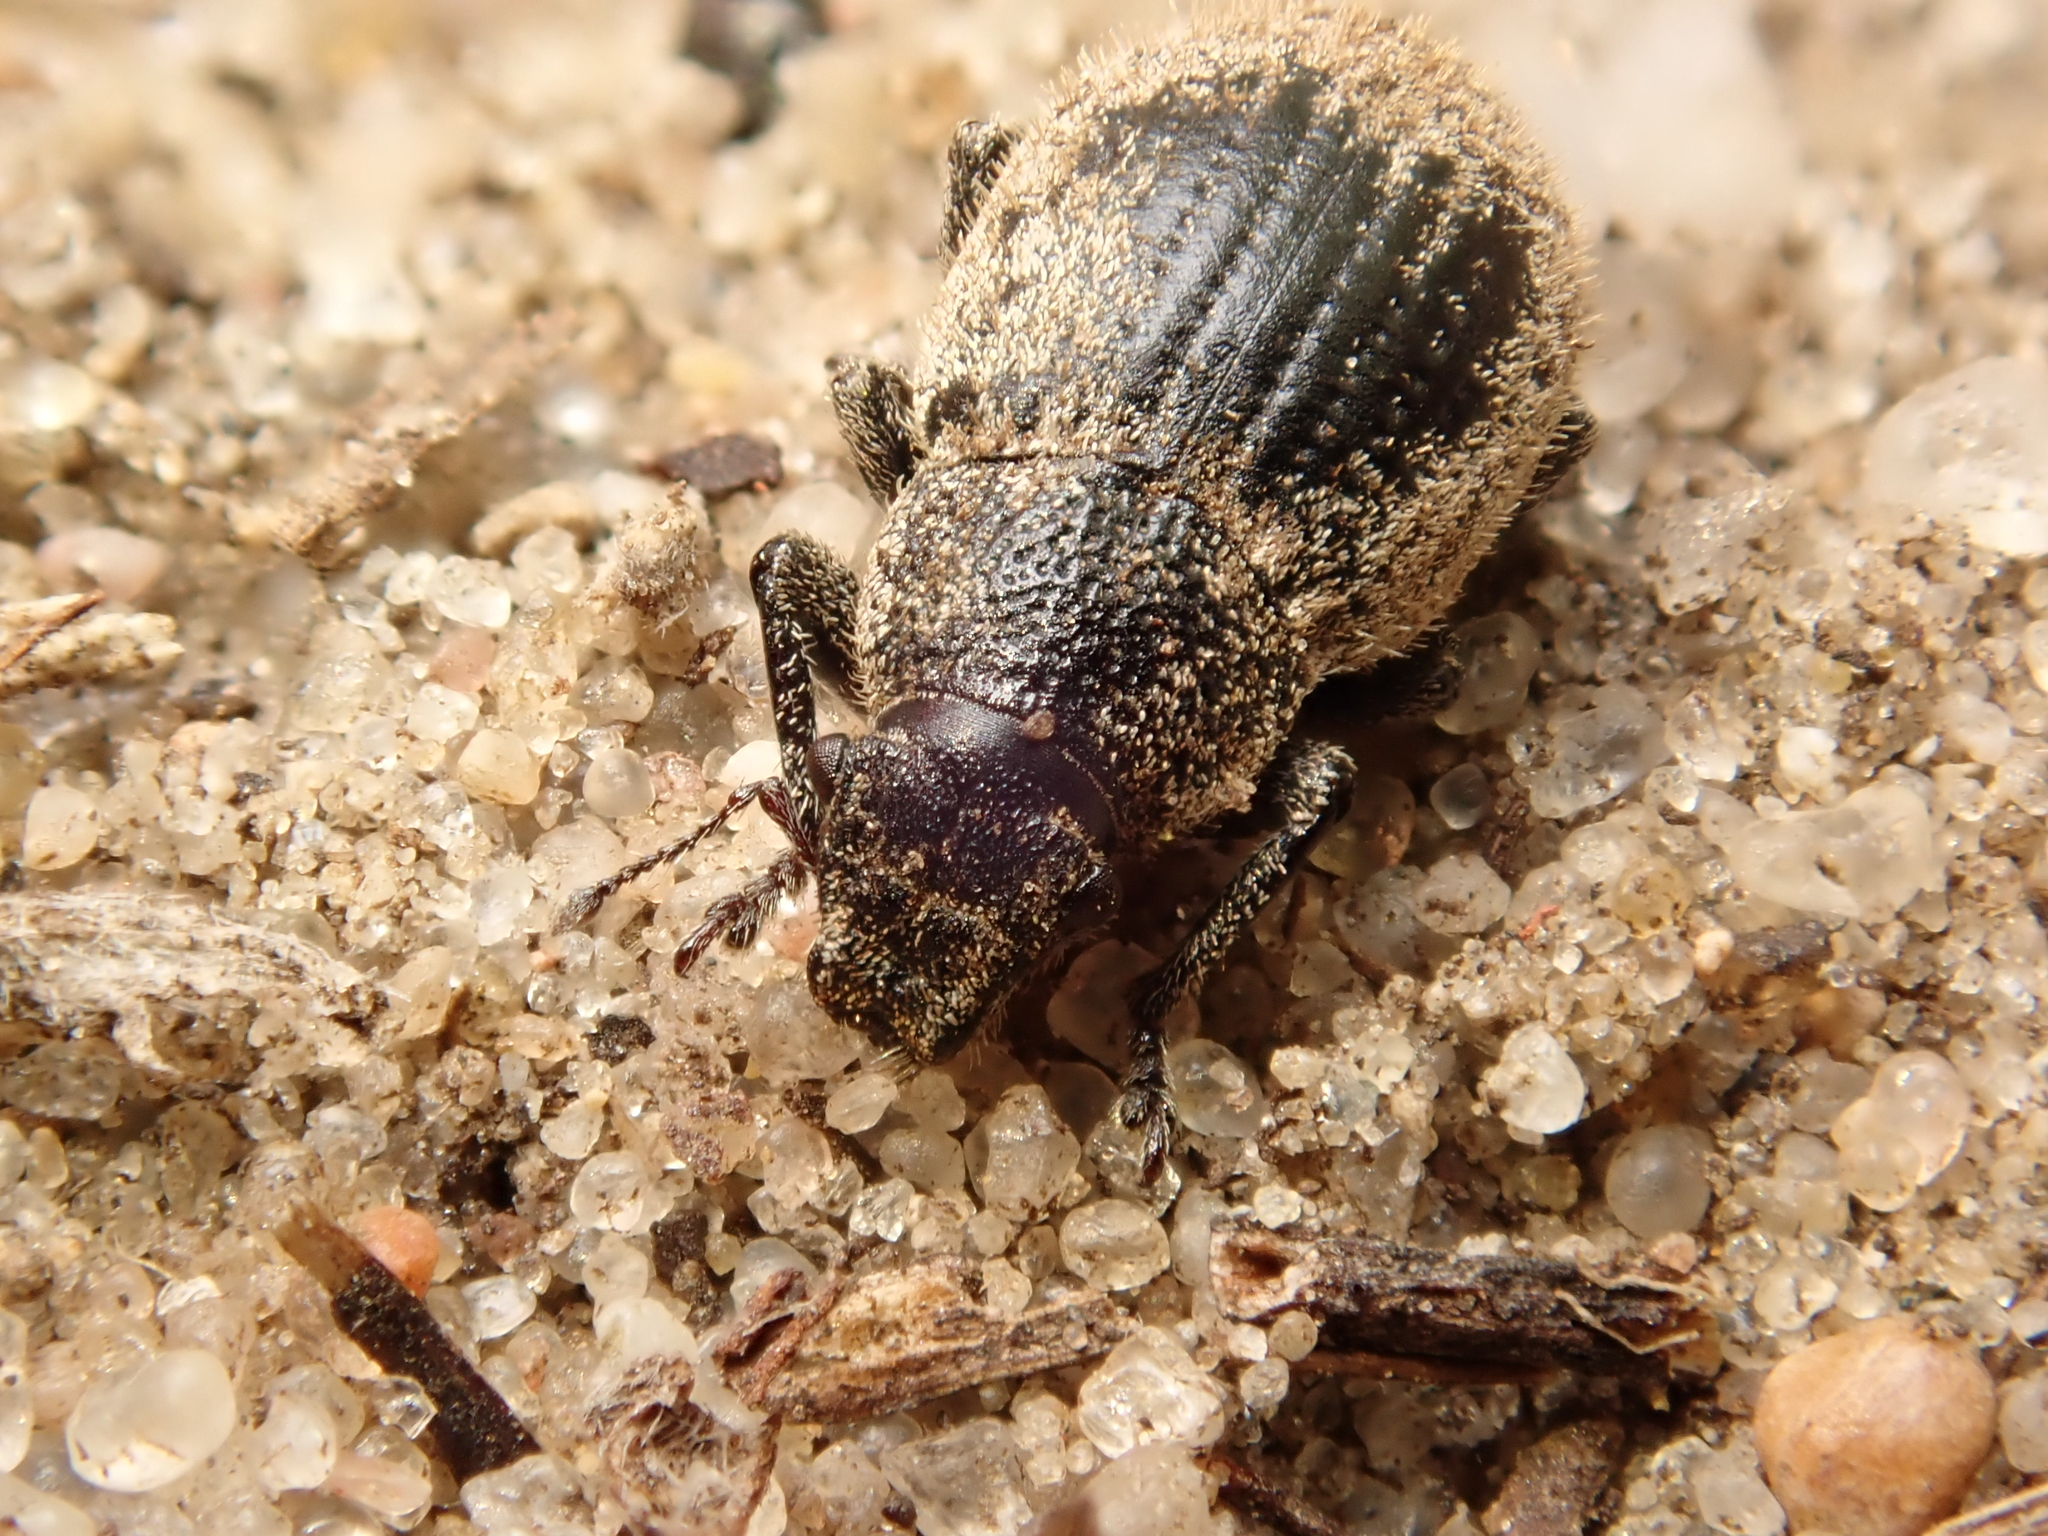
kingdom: Animalia
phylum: Arthropoda
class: Insecta
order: Coleoptera
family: Curculionidae
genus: Strophosoma
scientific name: Strophosoma faber
